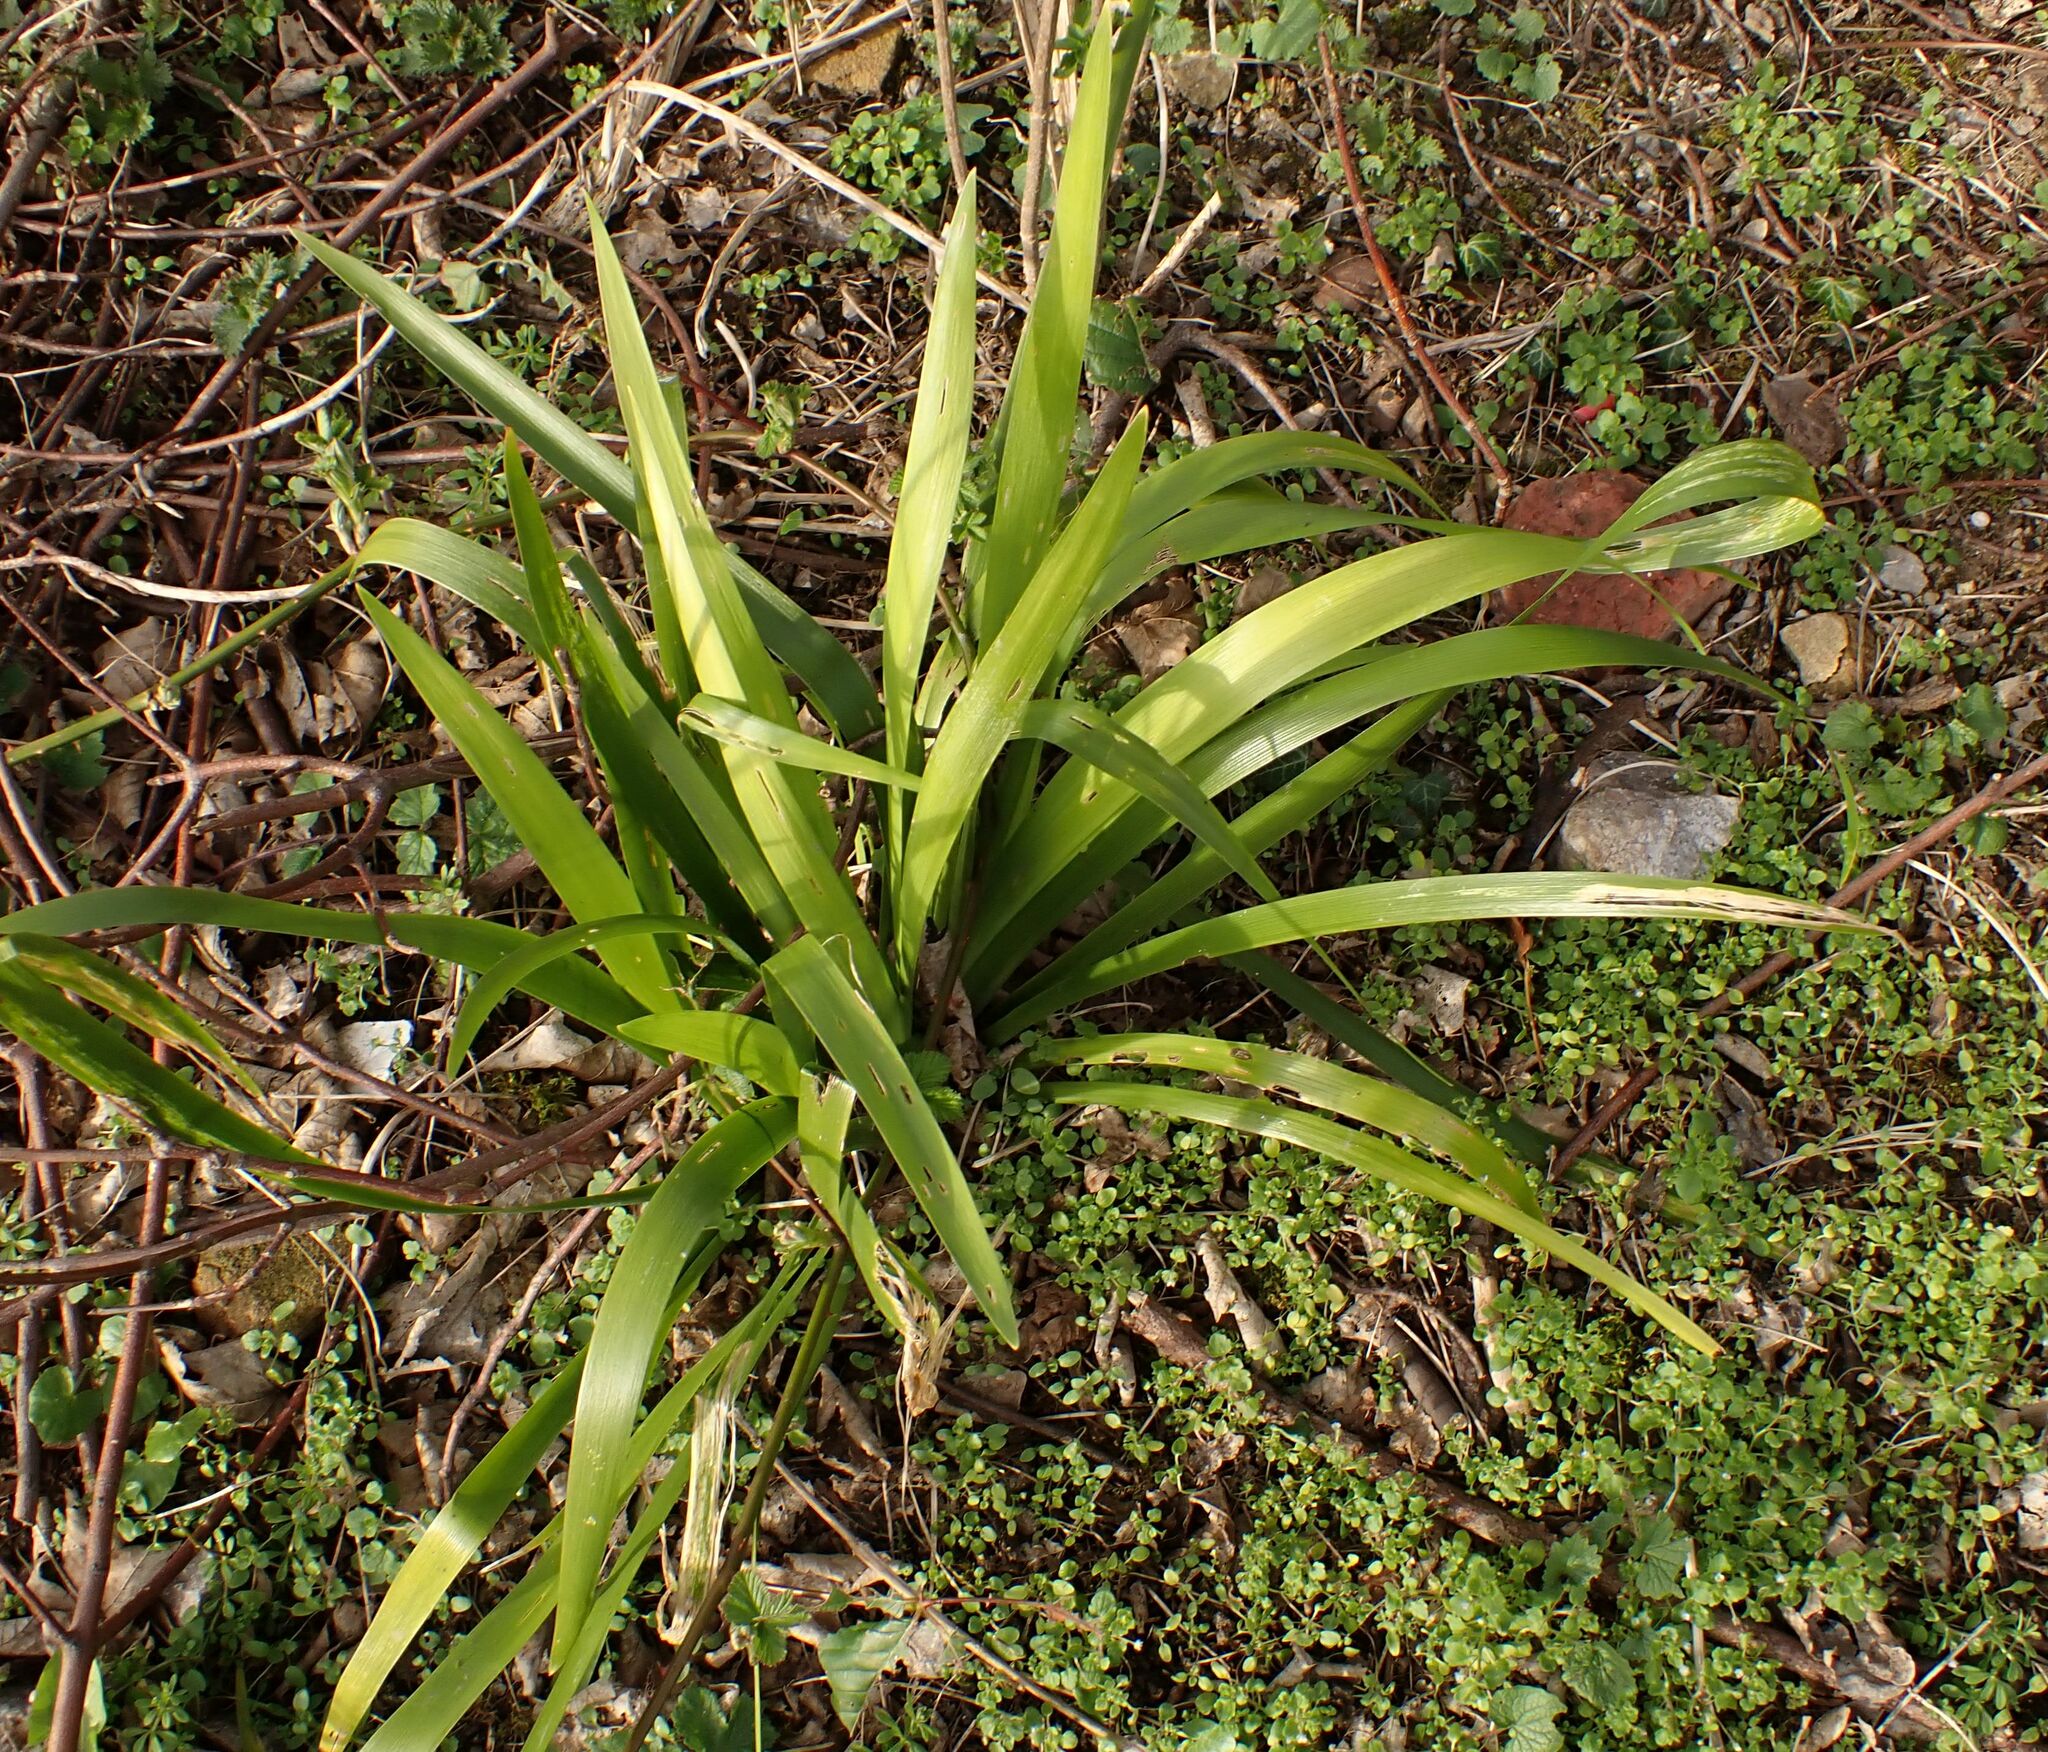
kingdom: Plantae
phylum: Tracheophyta
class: Liliopsida
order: Asparagales
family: Iridaceae
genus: Iris
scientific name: Iris foetidissima
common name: Stinking iris
